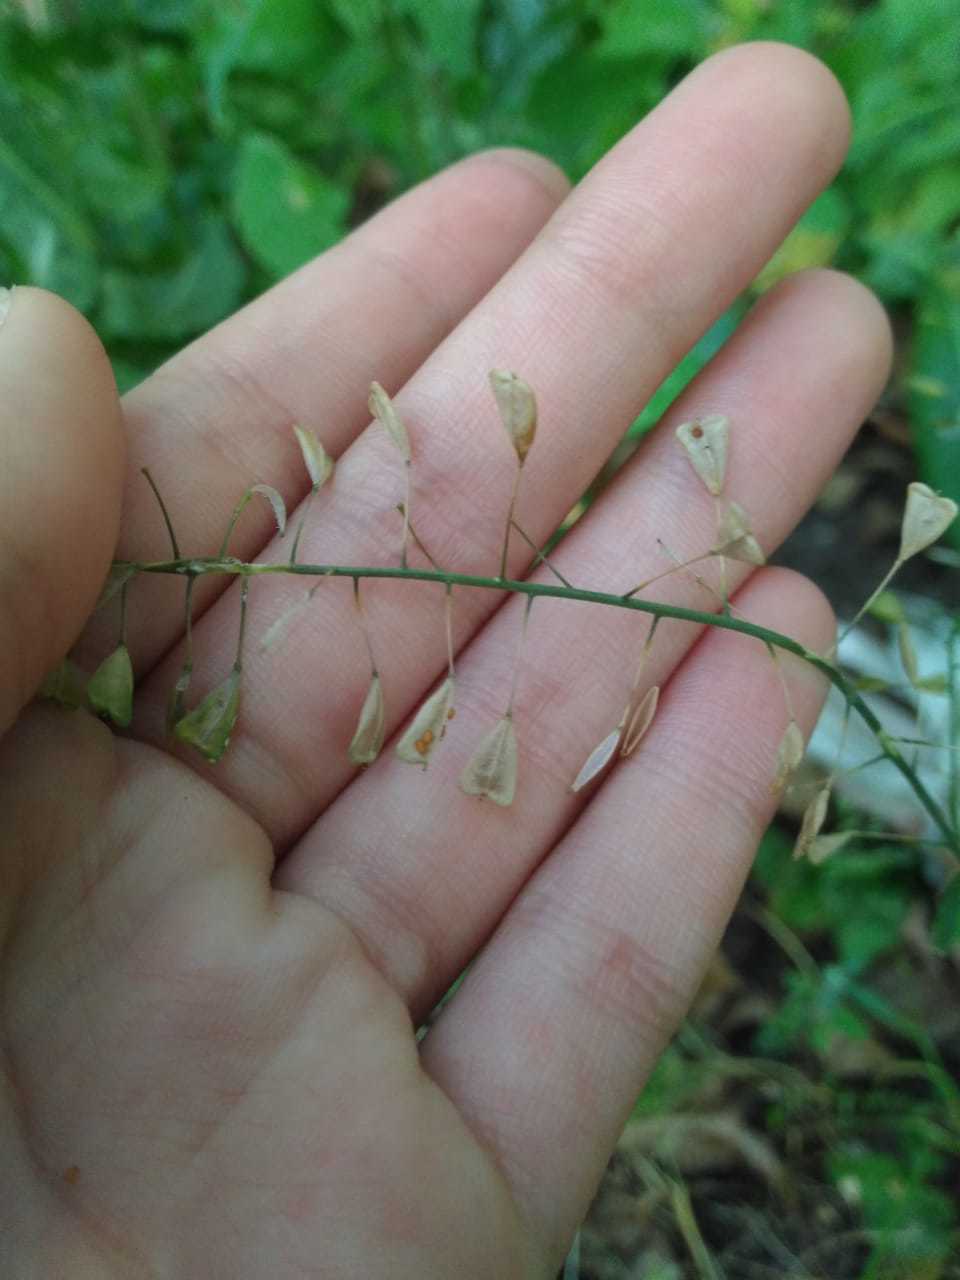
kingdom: Plantae
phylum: Tracheophyta
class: Magnoliopsida
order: Brassicales
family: Brassicaceae
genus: Capsella
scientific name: Capsella bursa-pastoris
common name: Shepherd's purse
